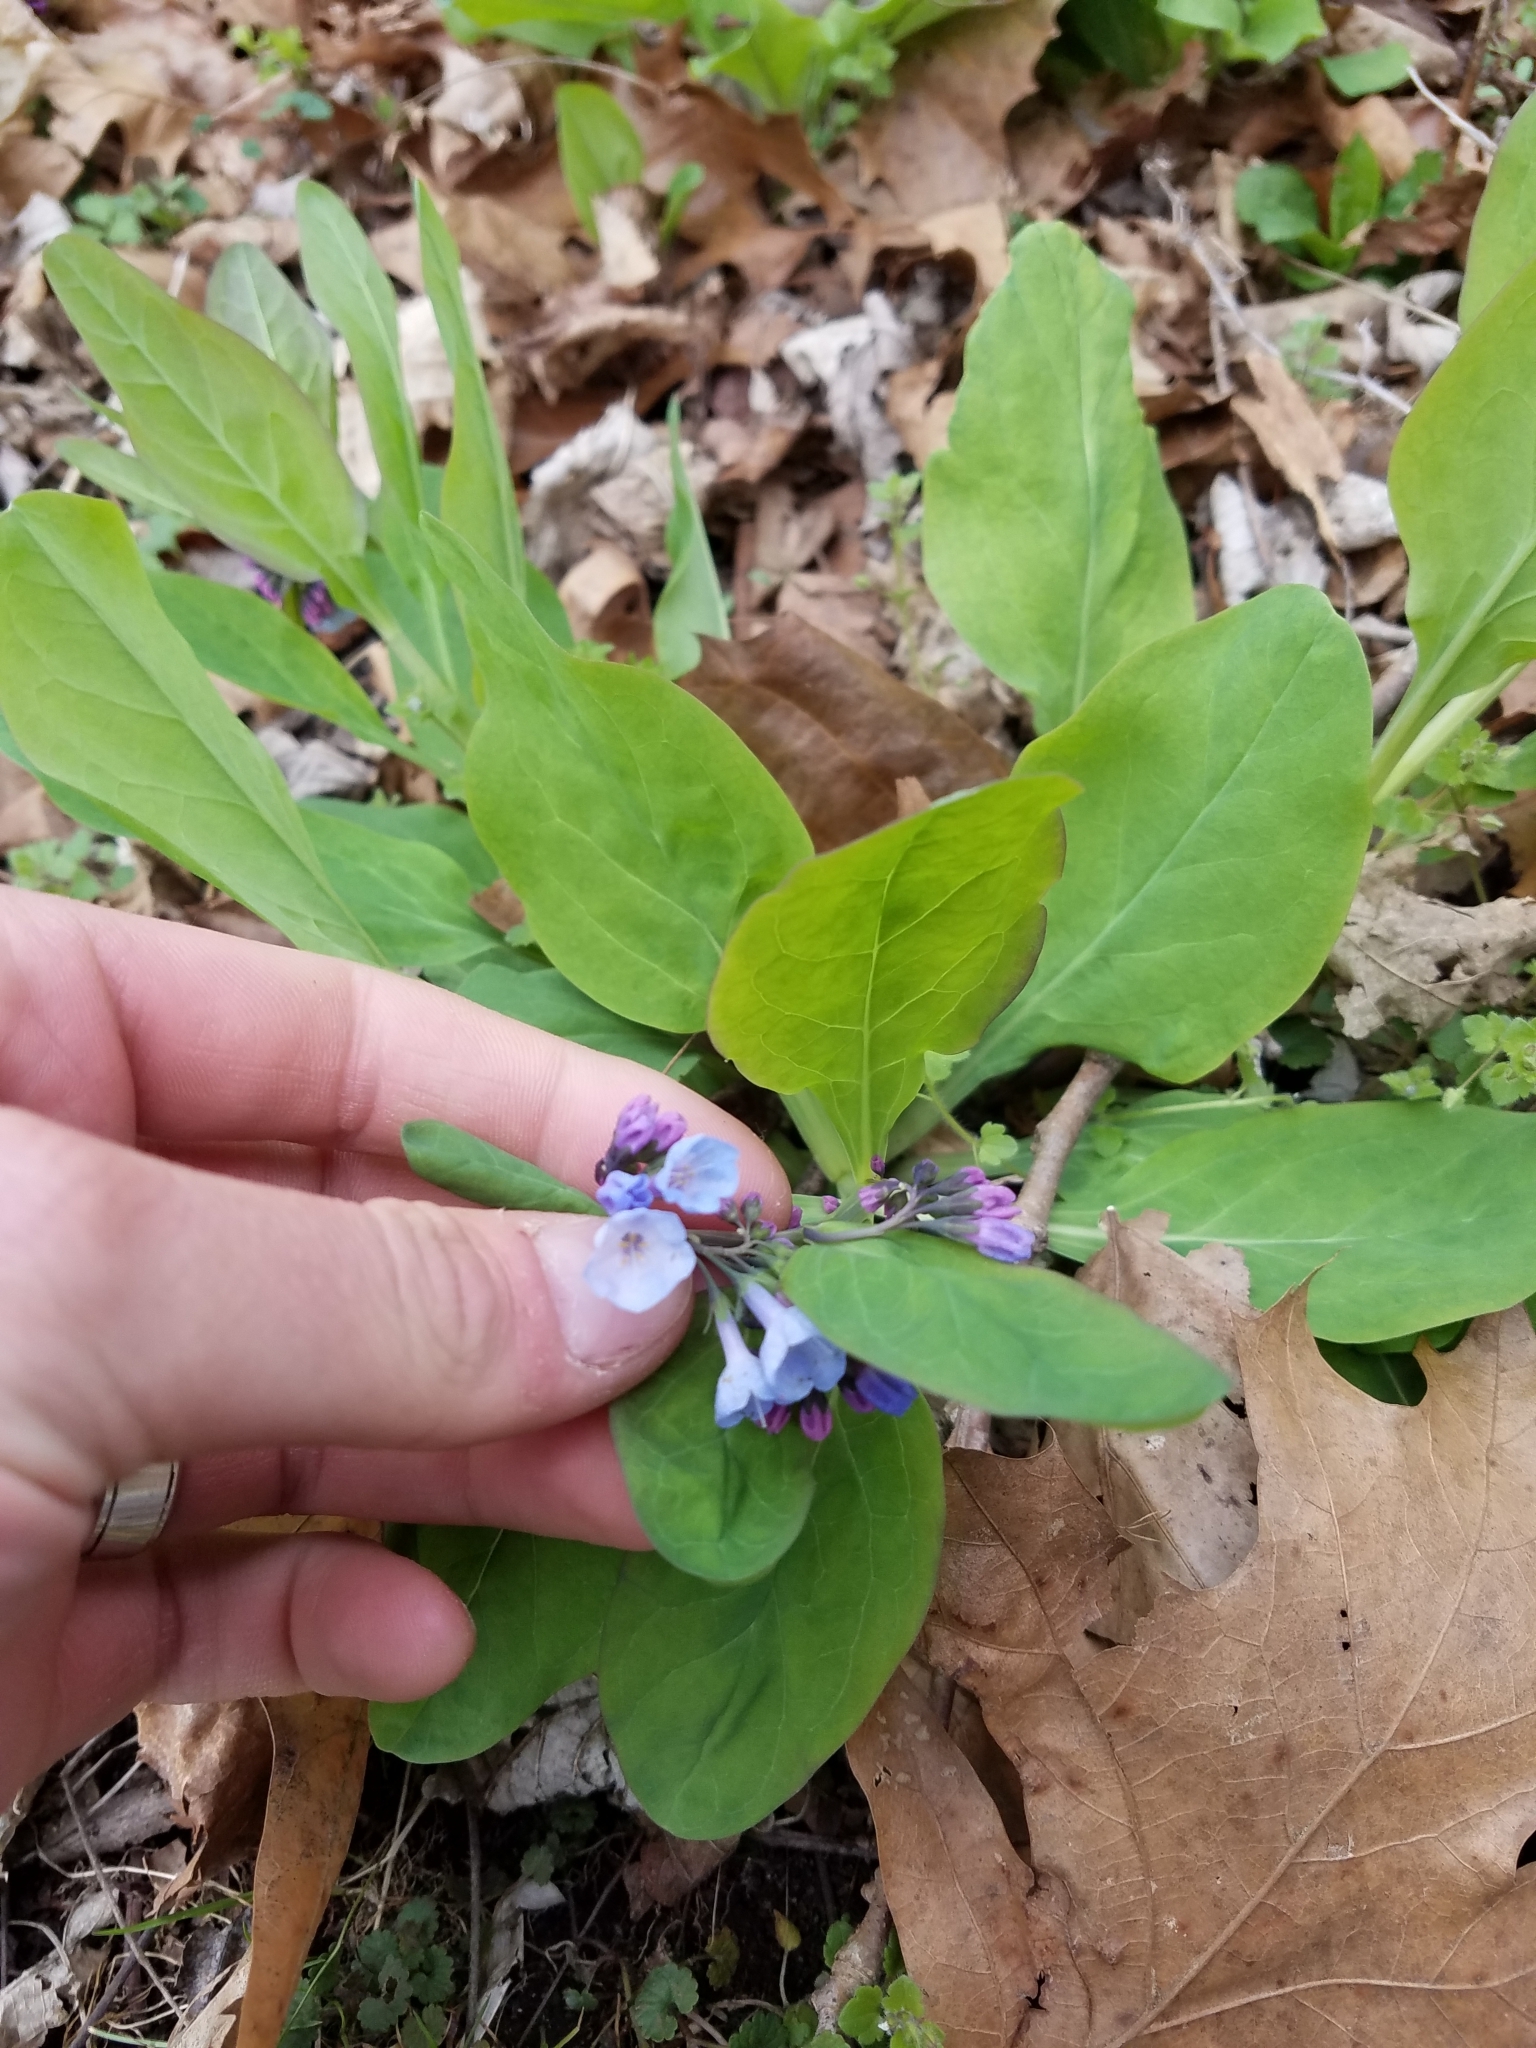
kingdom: Plantae
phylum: Tracheophyta
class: Magnoliopsida
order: Boraginales
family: Boraginaceae
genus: Mertensia
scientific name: Mertensia virginica
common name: Virginia bluebells
